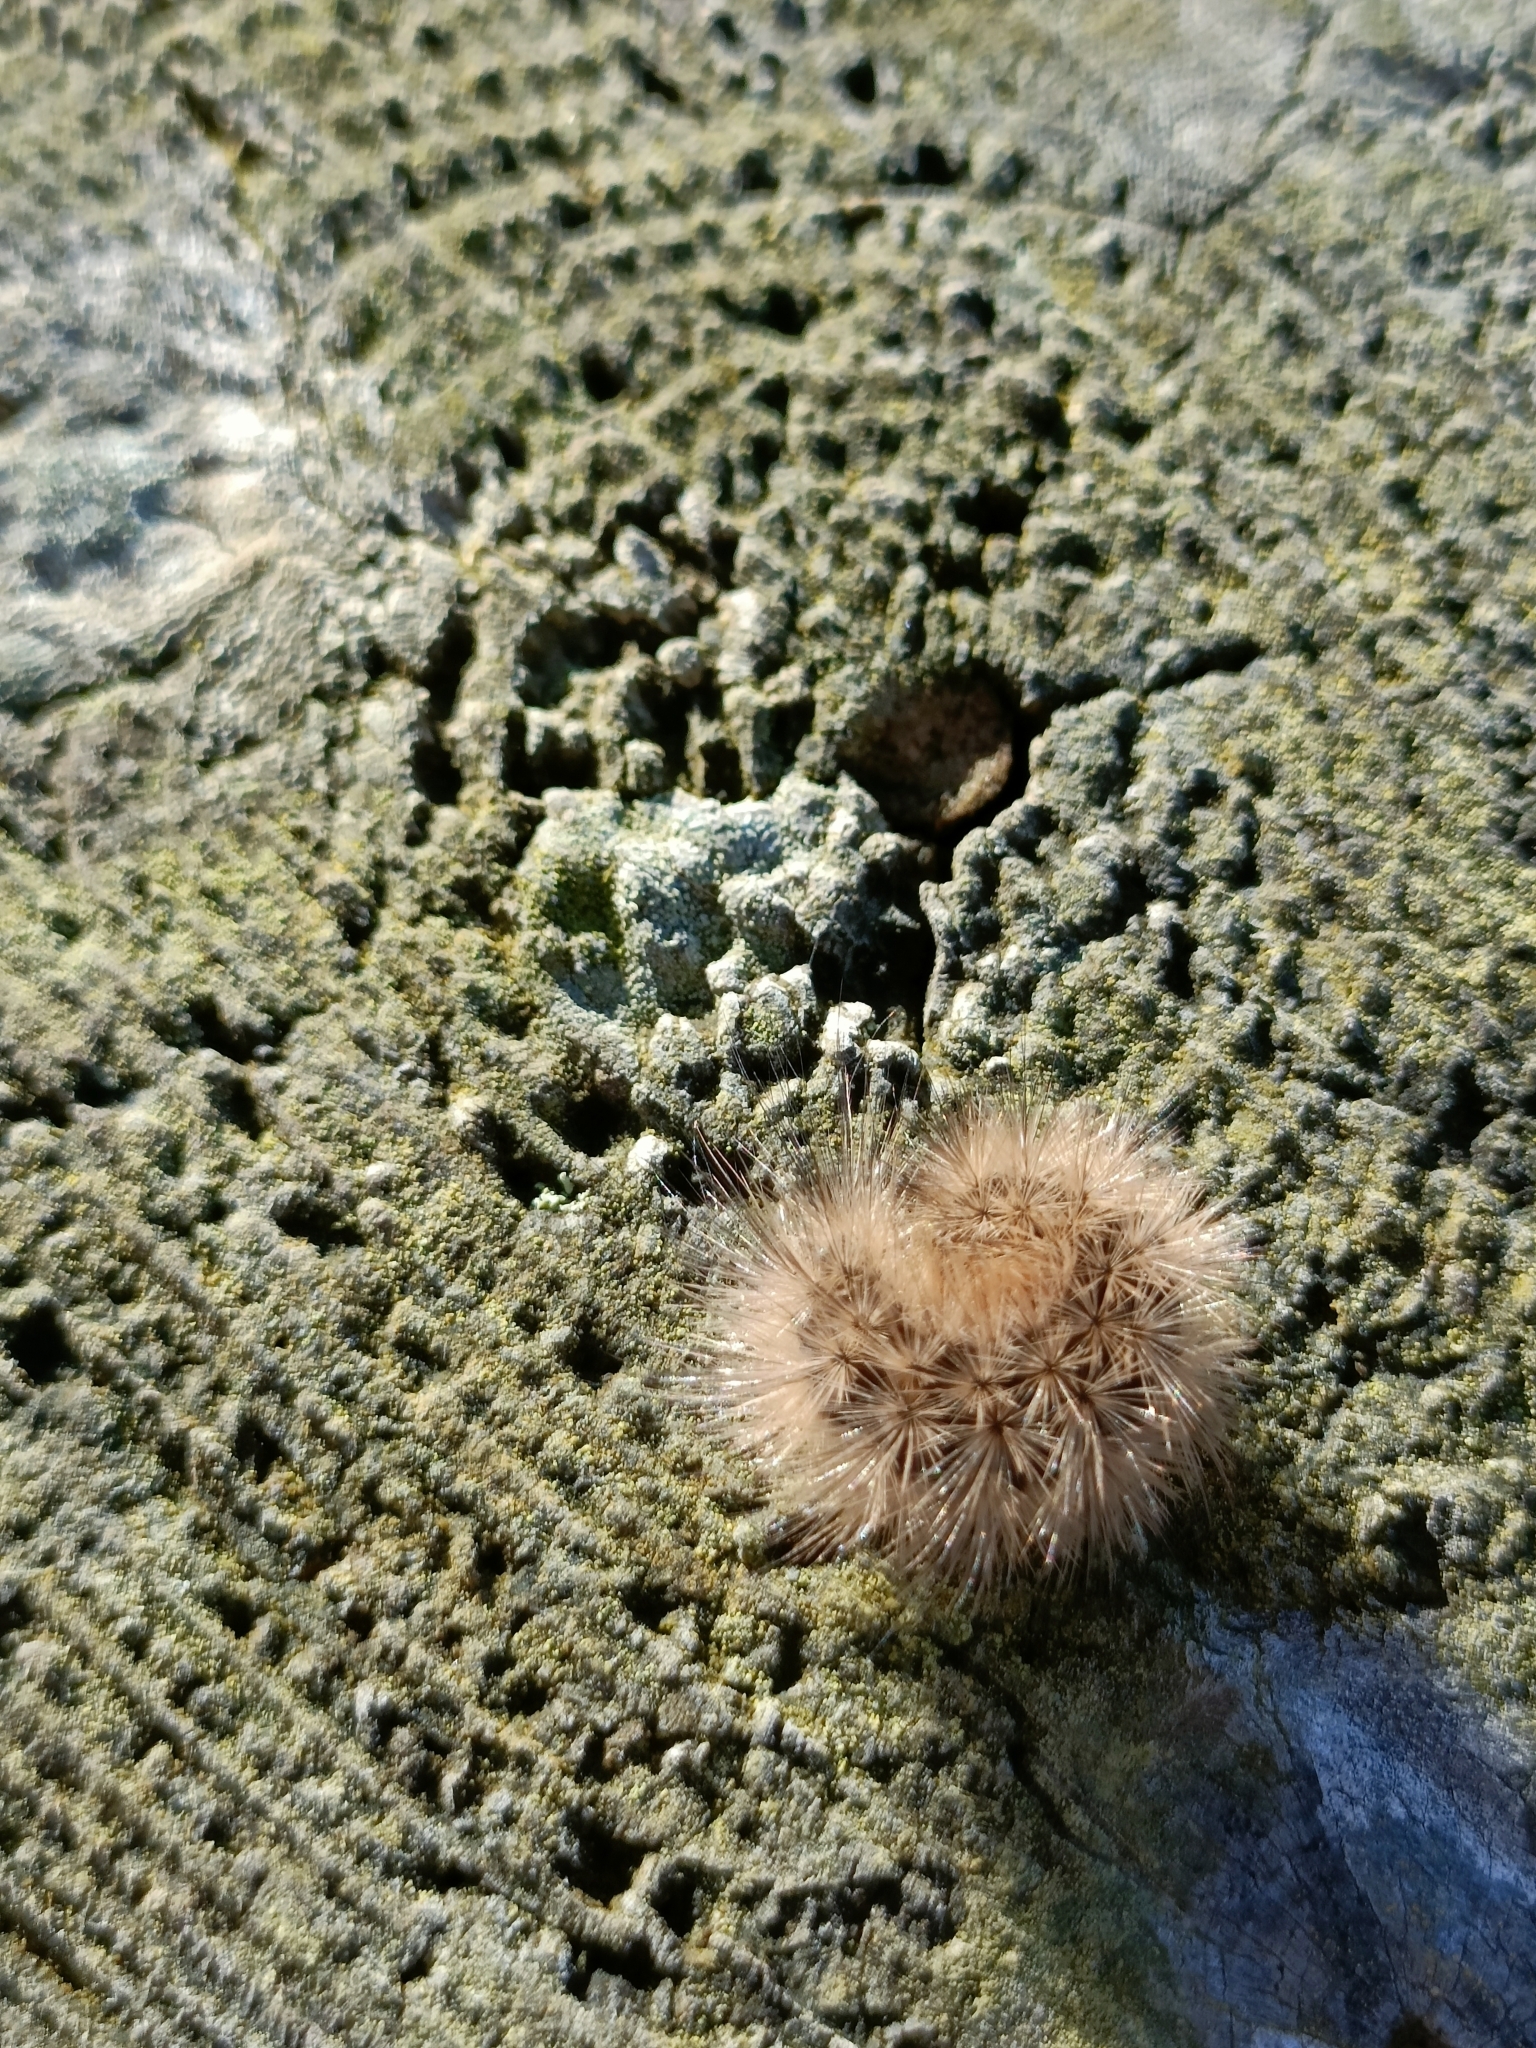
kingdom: Animalia
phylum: Arthropoda
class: Insecta
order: Lepidoptera
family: Erebidae
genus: Phragmatobia
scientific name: Phragmatobia fuliginosa
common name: Ruby tiger
